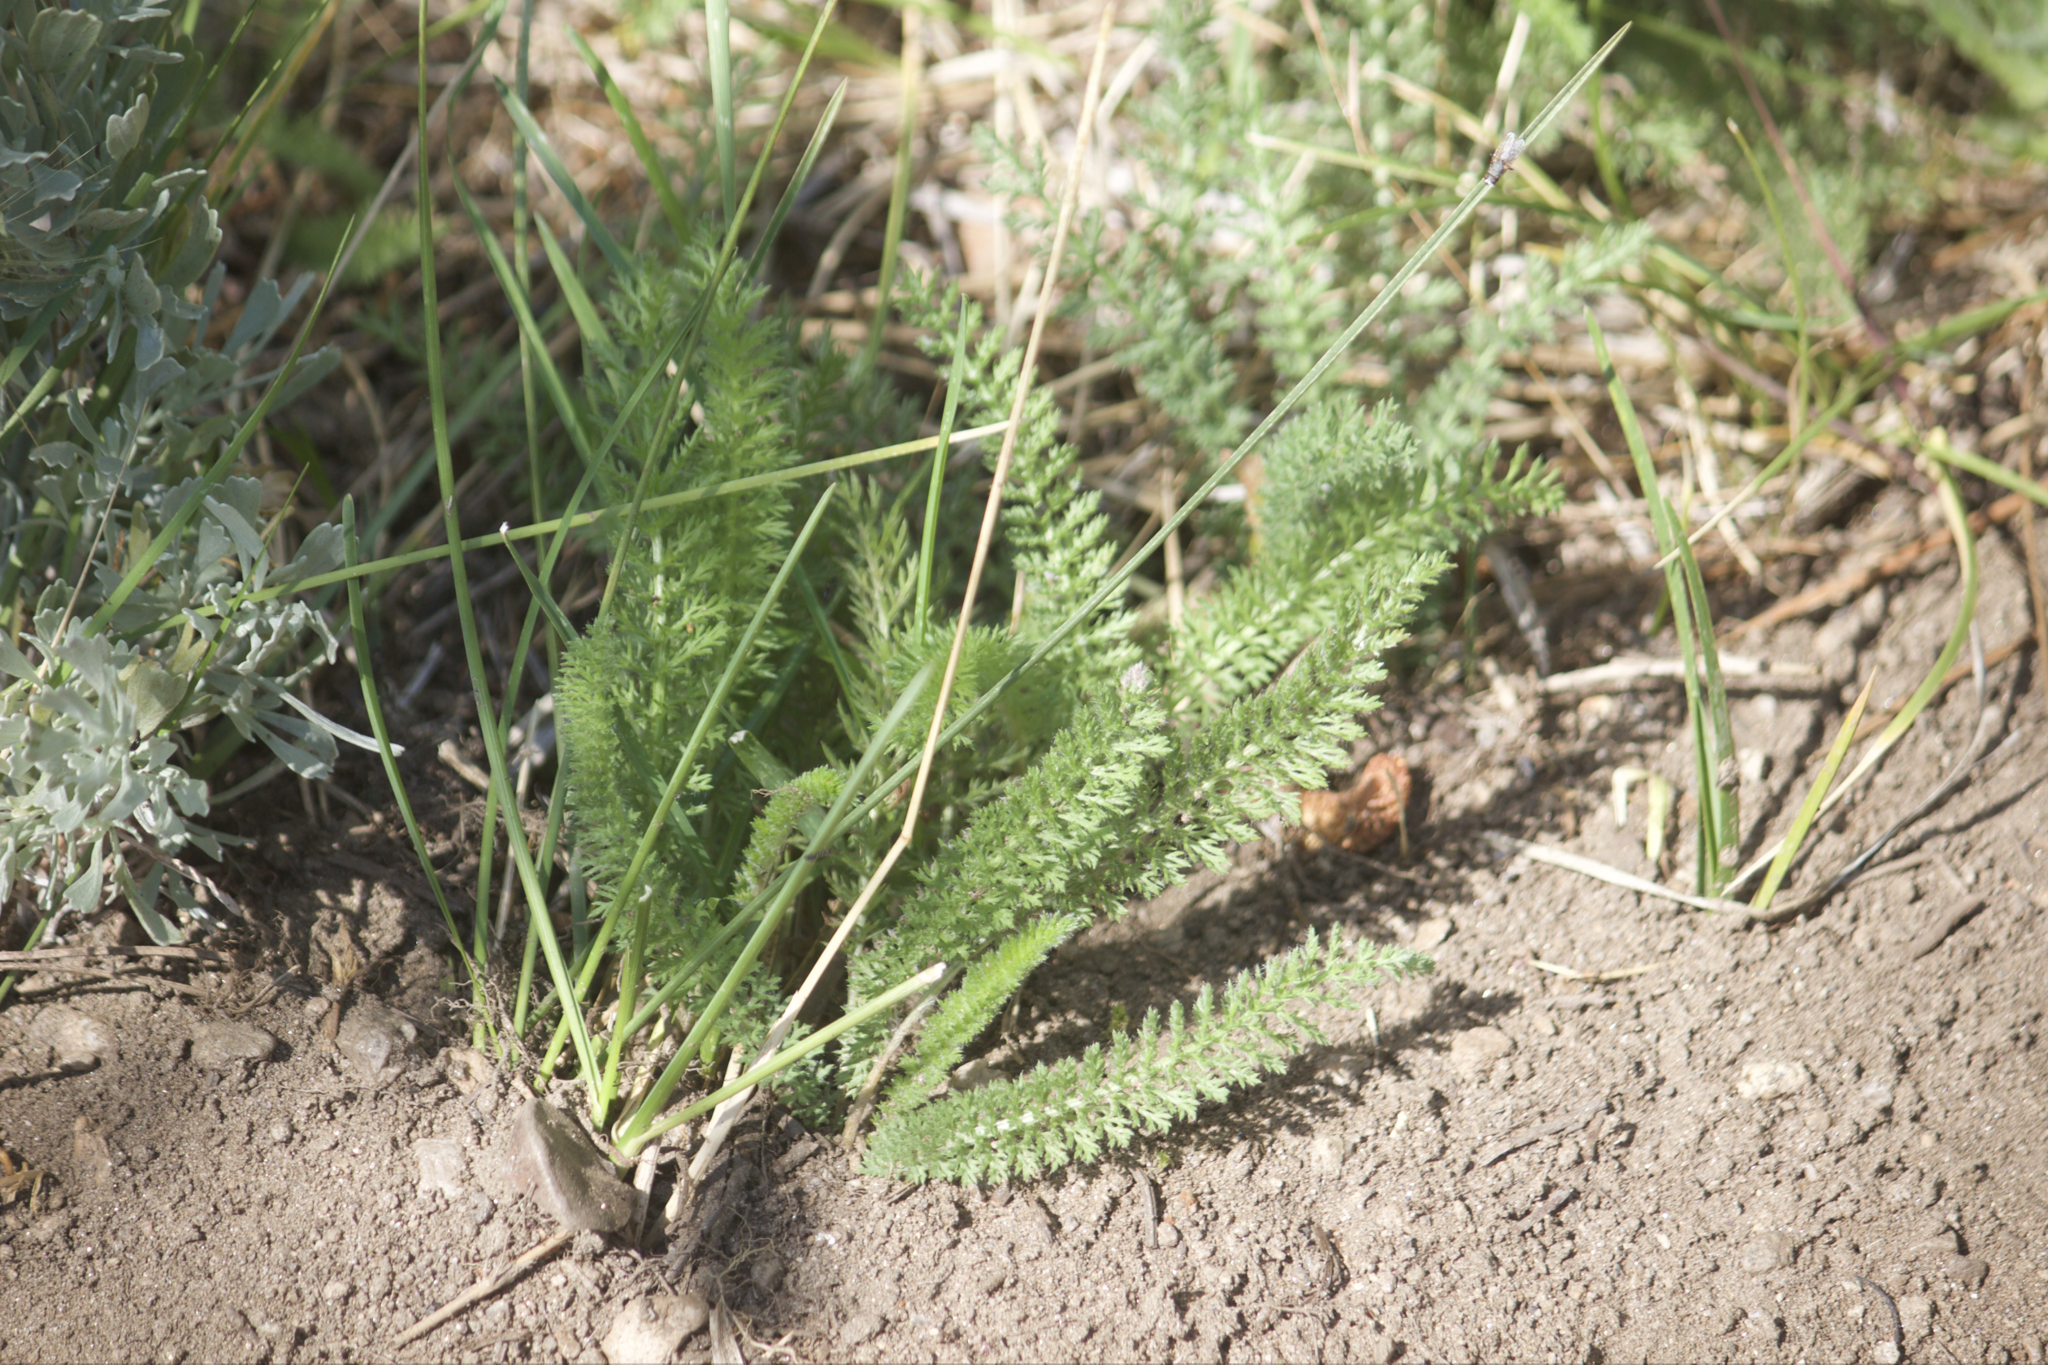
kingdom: Plantae
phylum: Tracheophyta
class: Magnoliopsida
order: Asterales
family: Asteraceae
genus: Achillea
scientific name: Achillea millefolium
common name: Yarrow
